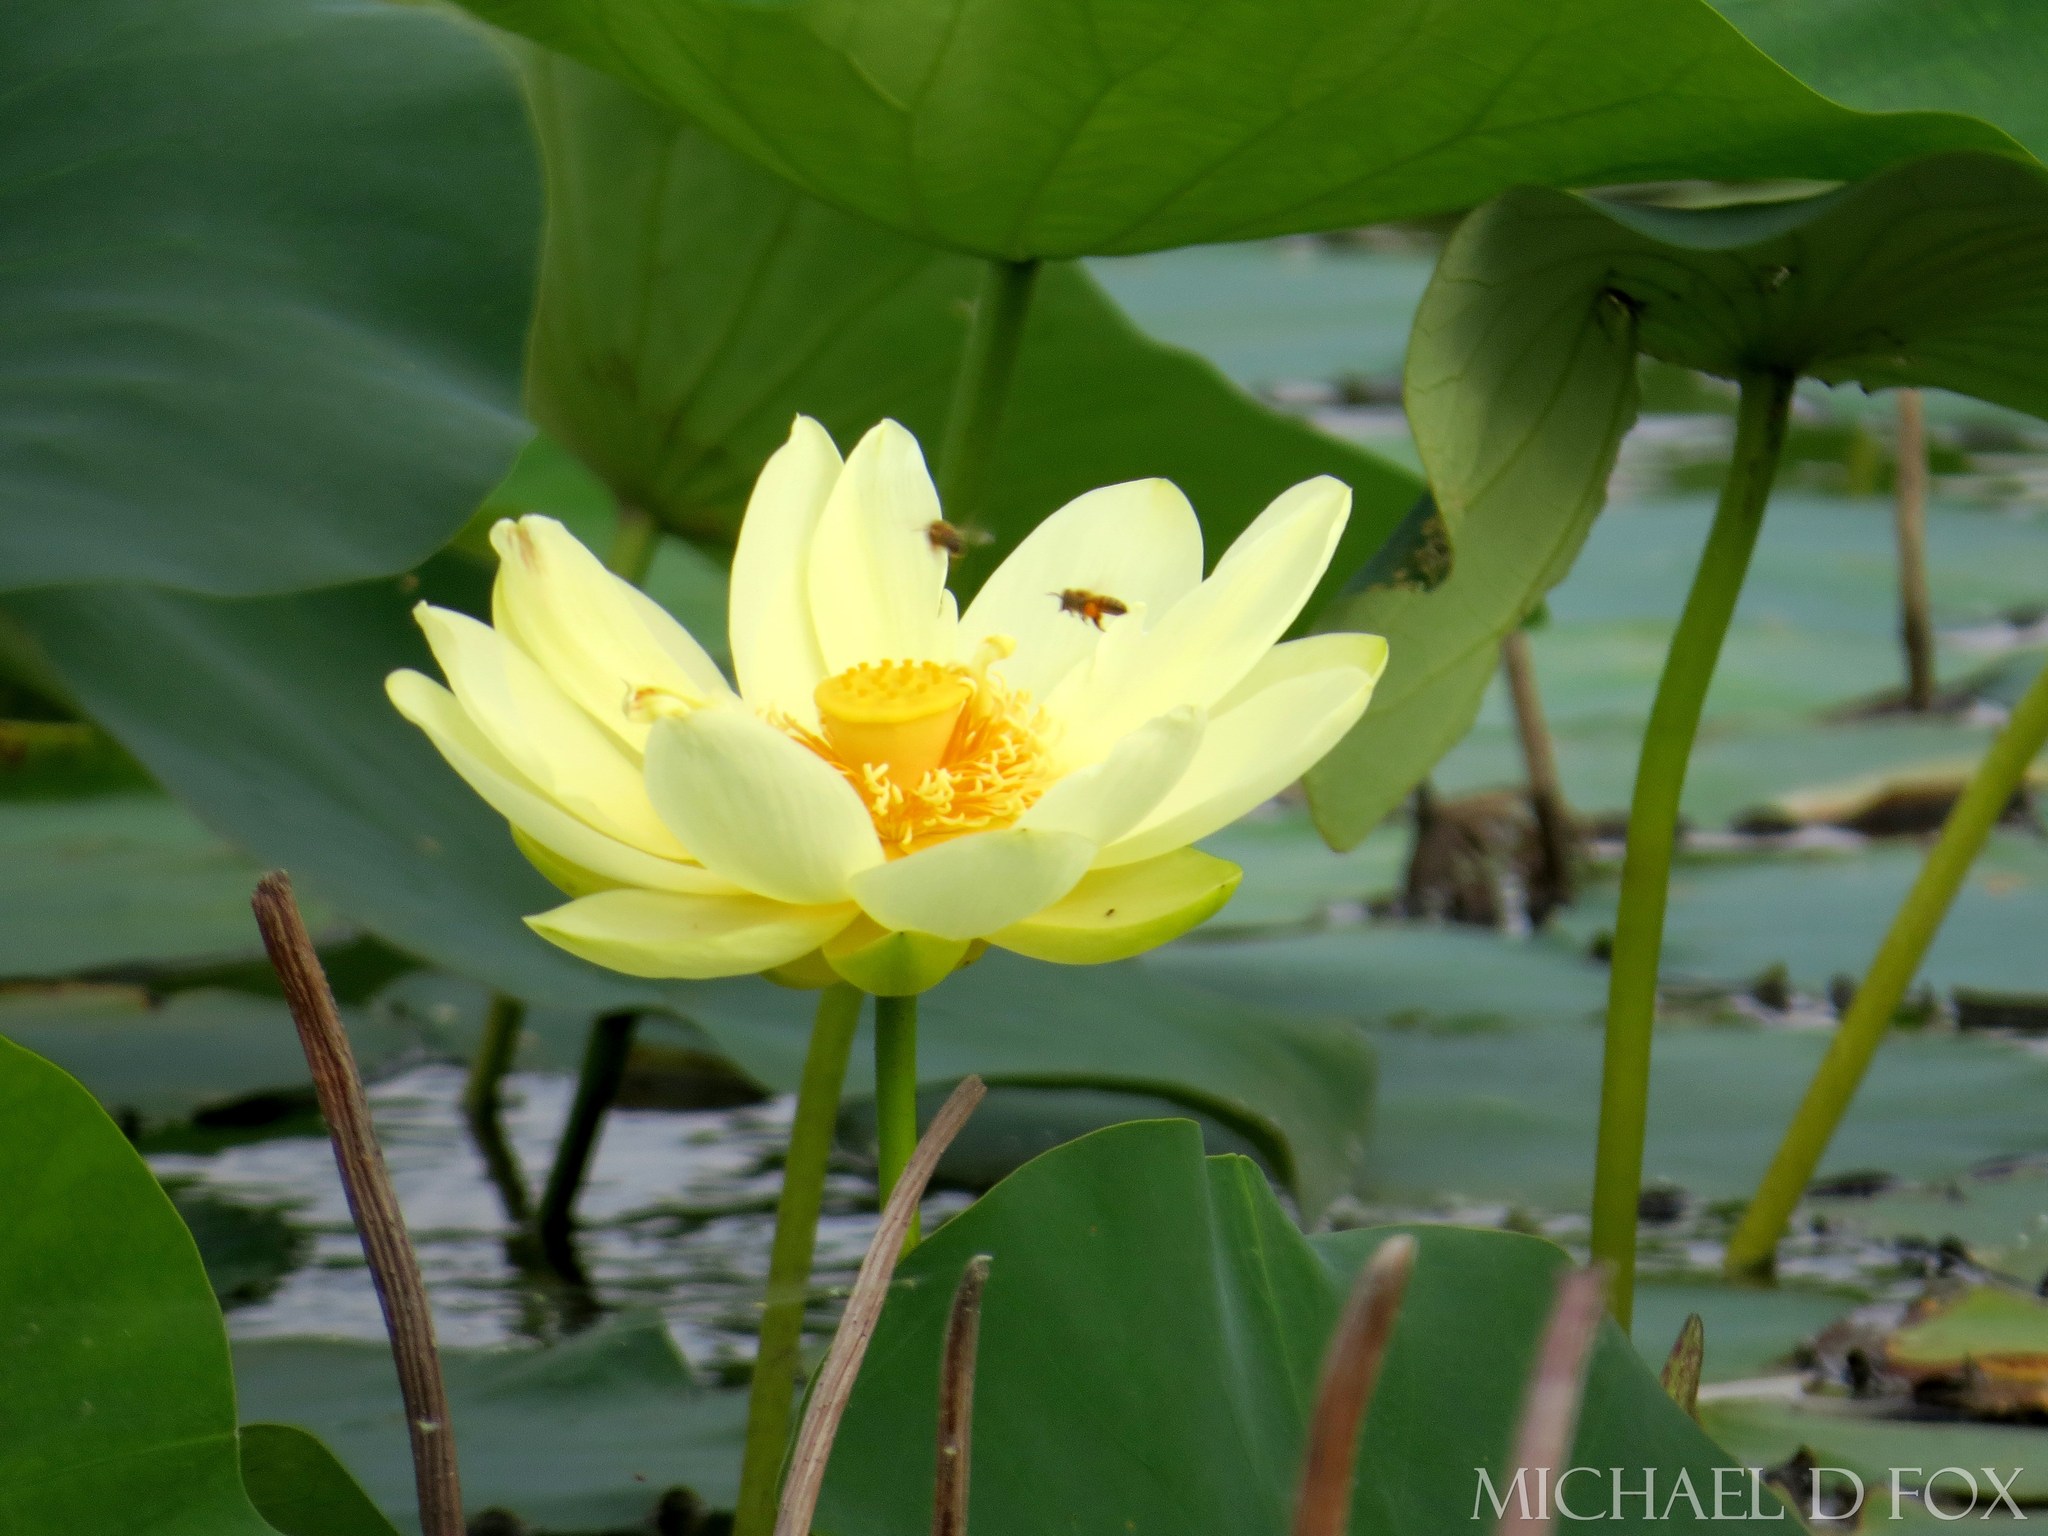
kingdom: Plantae
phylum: Tracheophyta
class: Magnoliopsida
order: Proteales
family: Nelumbonaceae
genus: Nelumbo
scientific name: Nelumbo lutea
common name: American lotus
